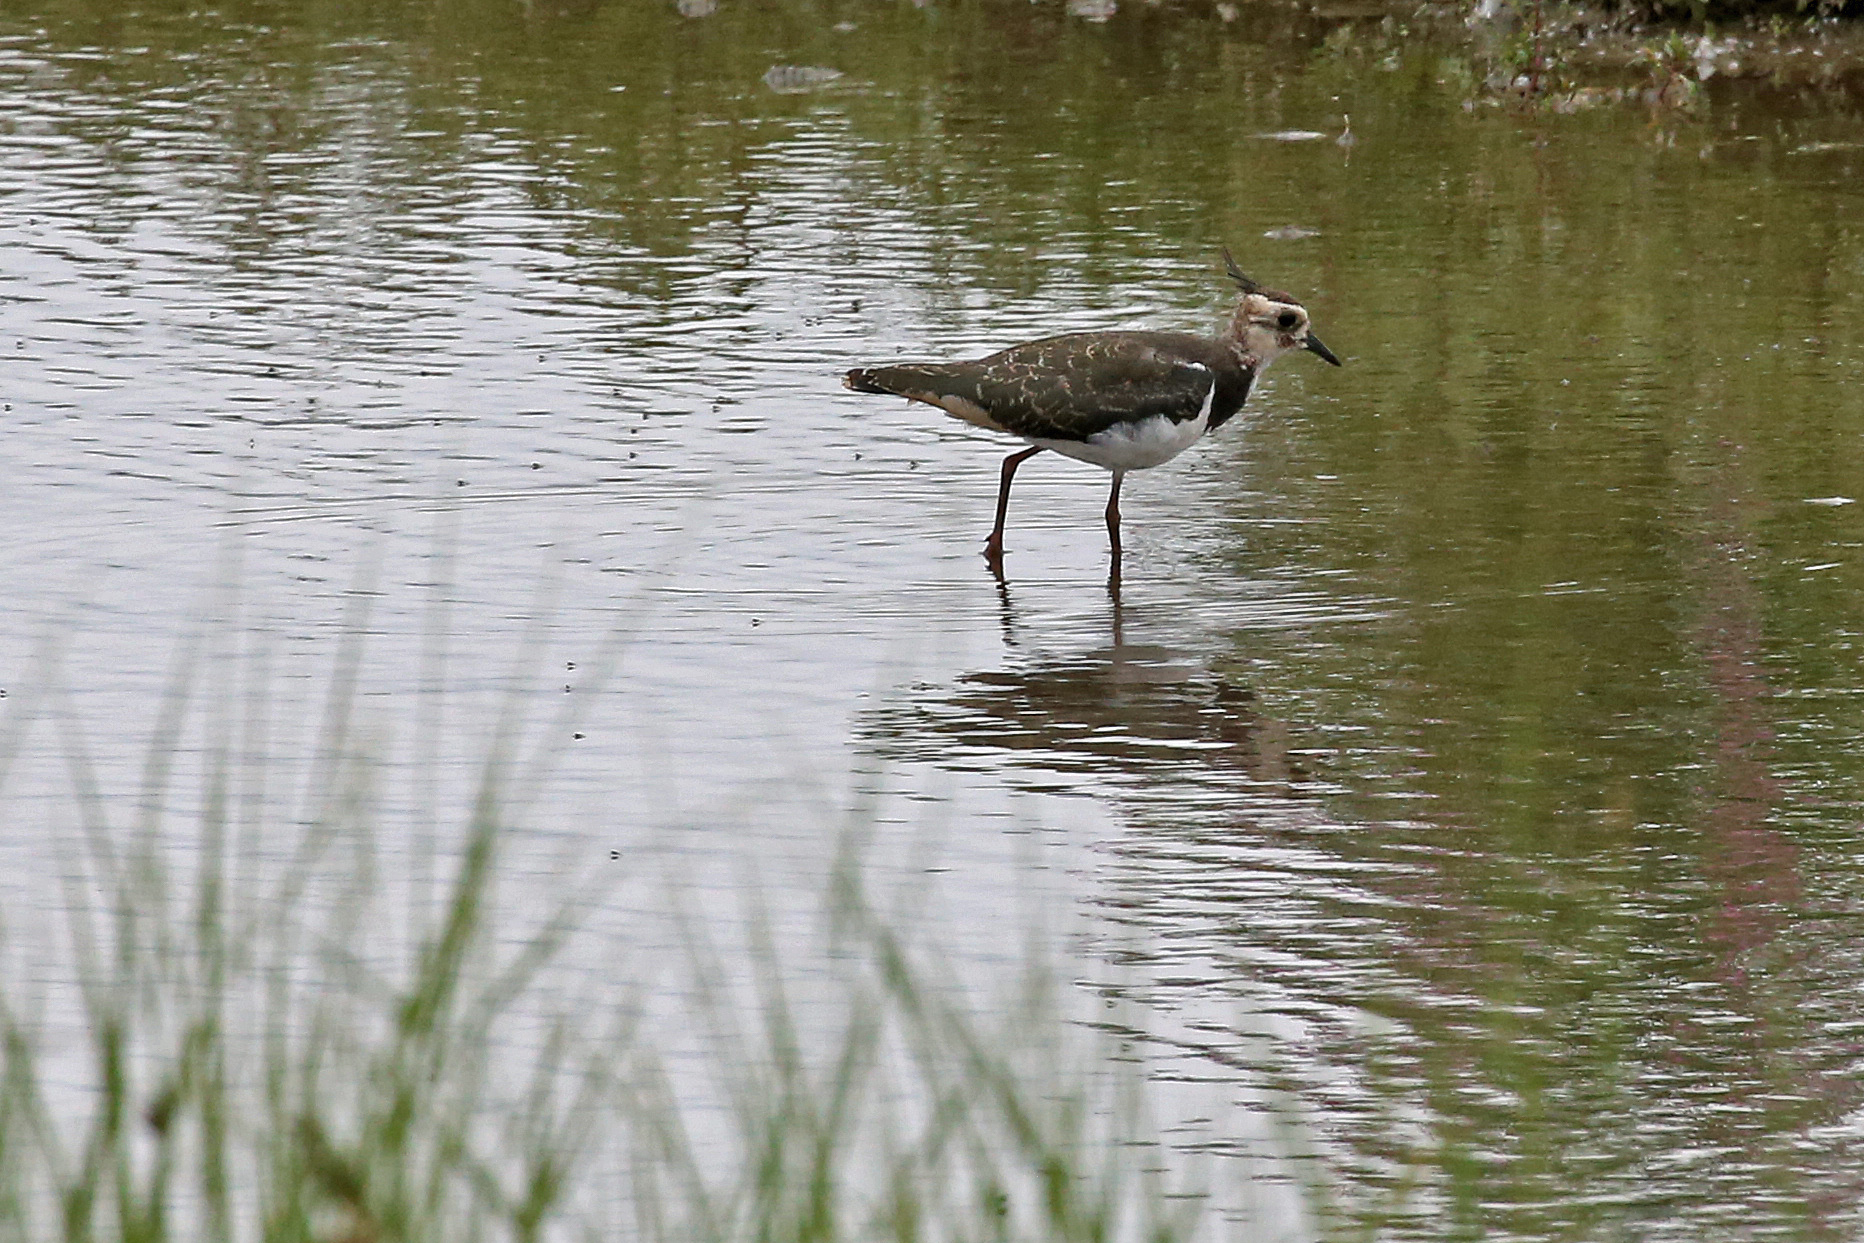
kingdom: Animalia
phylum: Chordata
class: Aves
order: Charadriiformes
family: Charadriidae
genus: Vanellus
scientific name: Vanellus vanellus
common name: Northern lapwing
